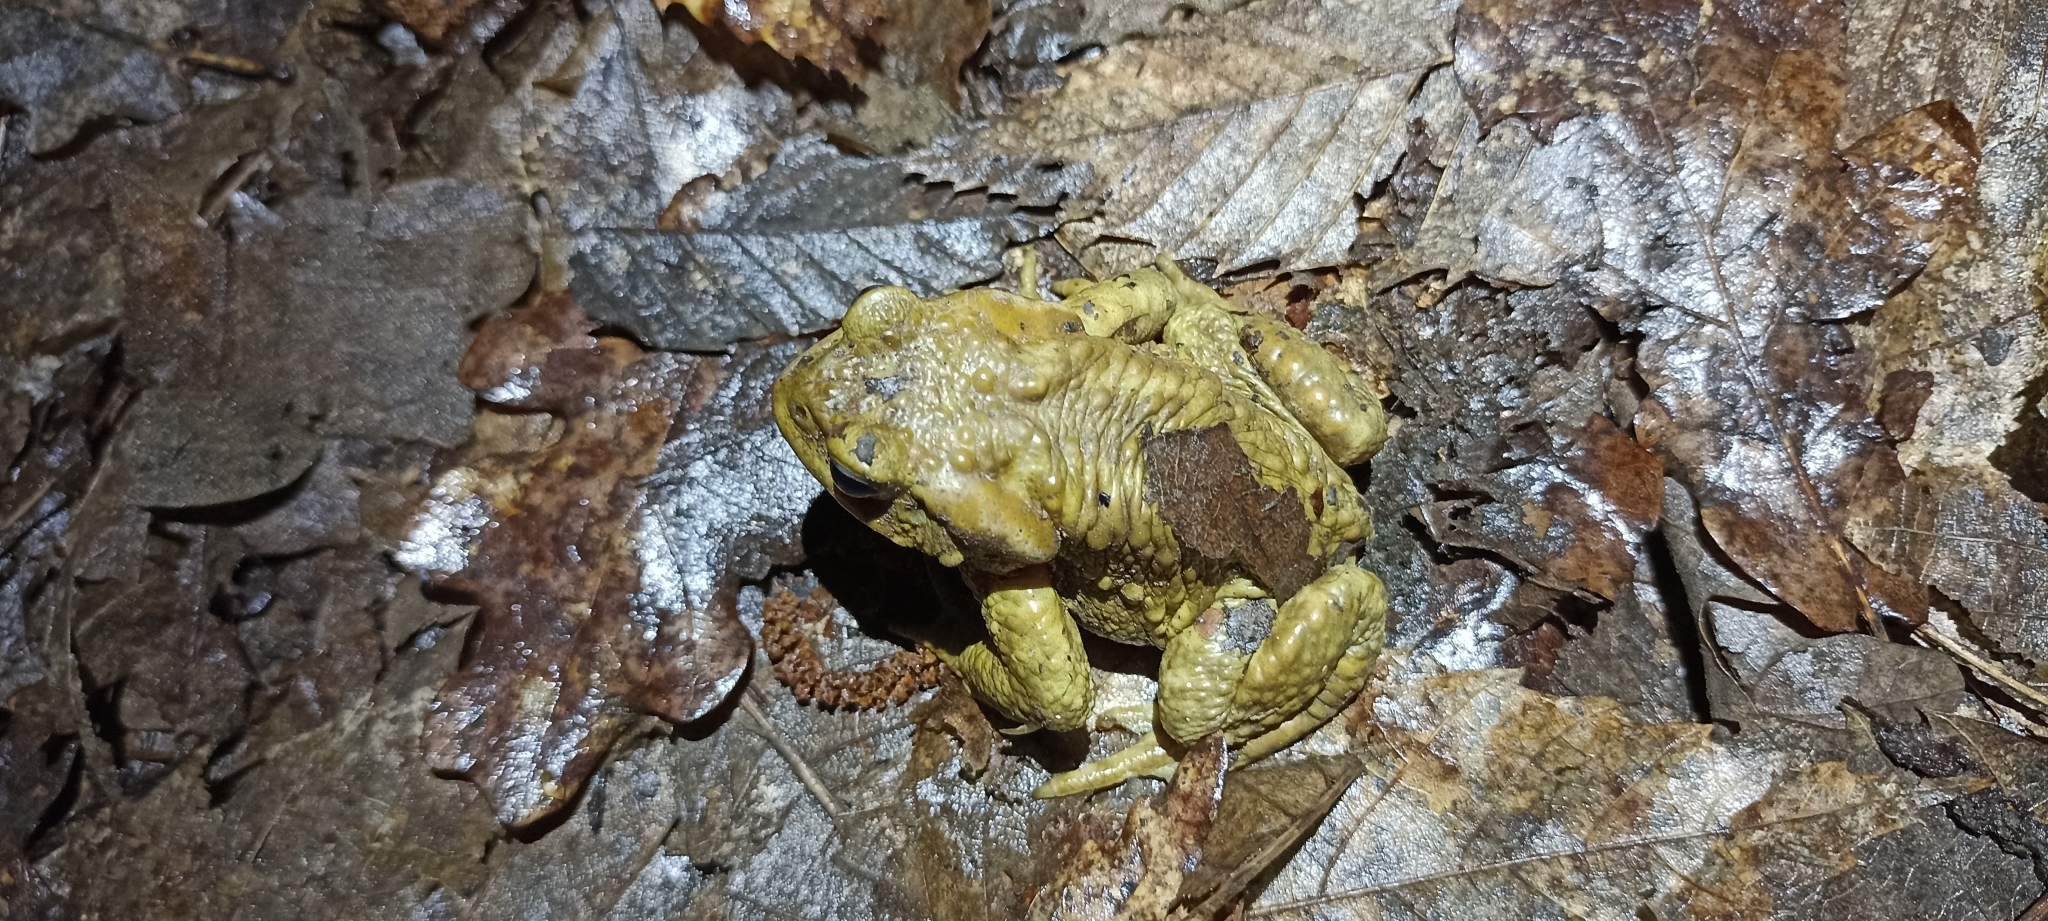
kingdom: Animalia
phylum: Chordata
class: Amphibia
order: Anura
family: Bufonidae
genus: Bufo
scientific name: Bufo spinosus
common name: Western common toad
